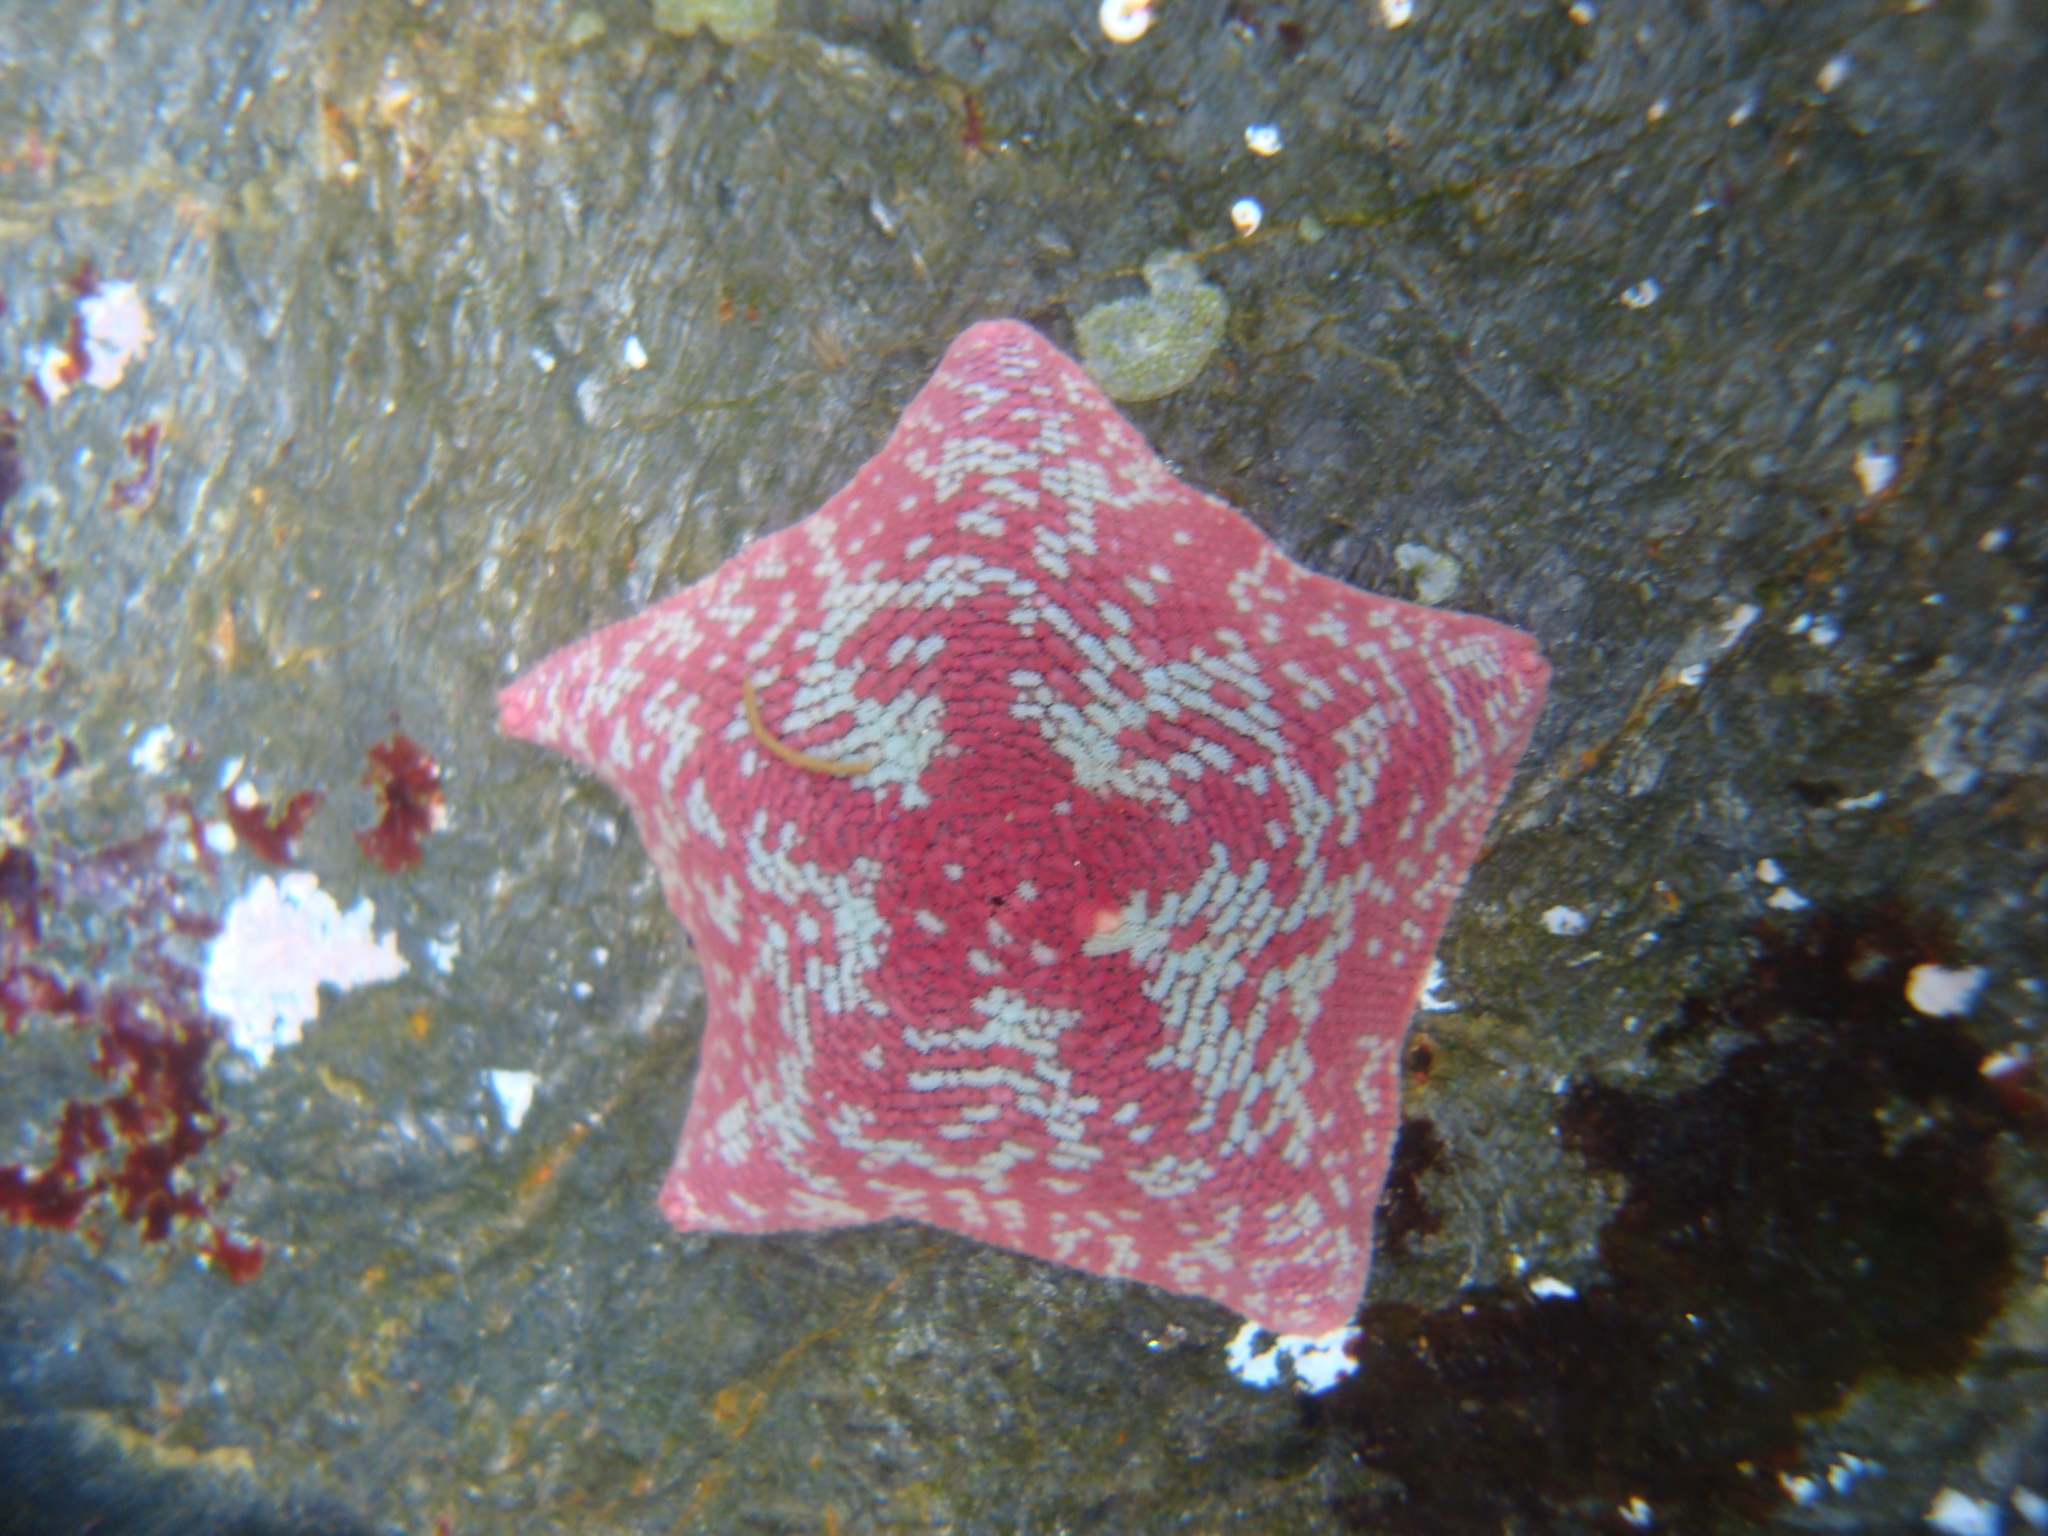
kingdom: Animalia
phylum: Echinodermata
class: Asteroidea
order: Valvatida
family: Asterinidae
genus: Patiria
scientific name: Patiria chilensis
